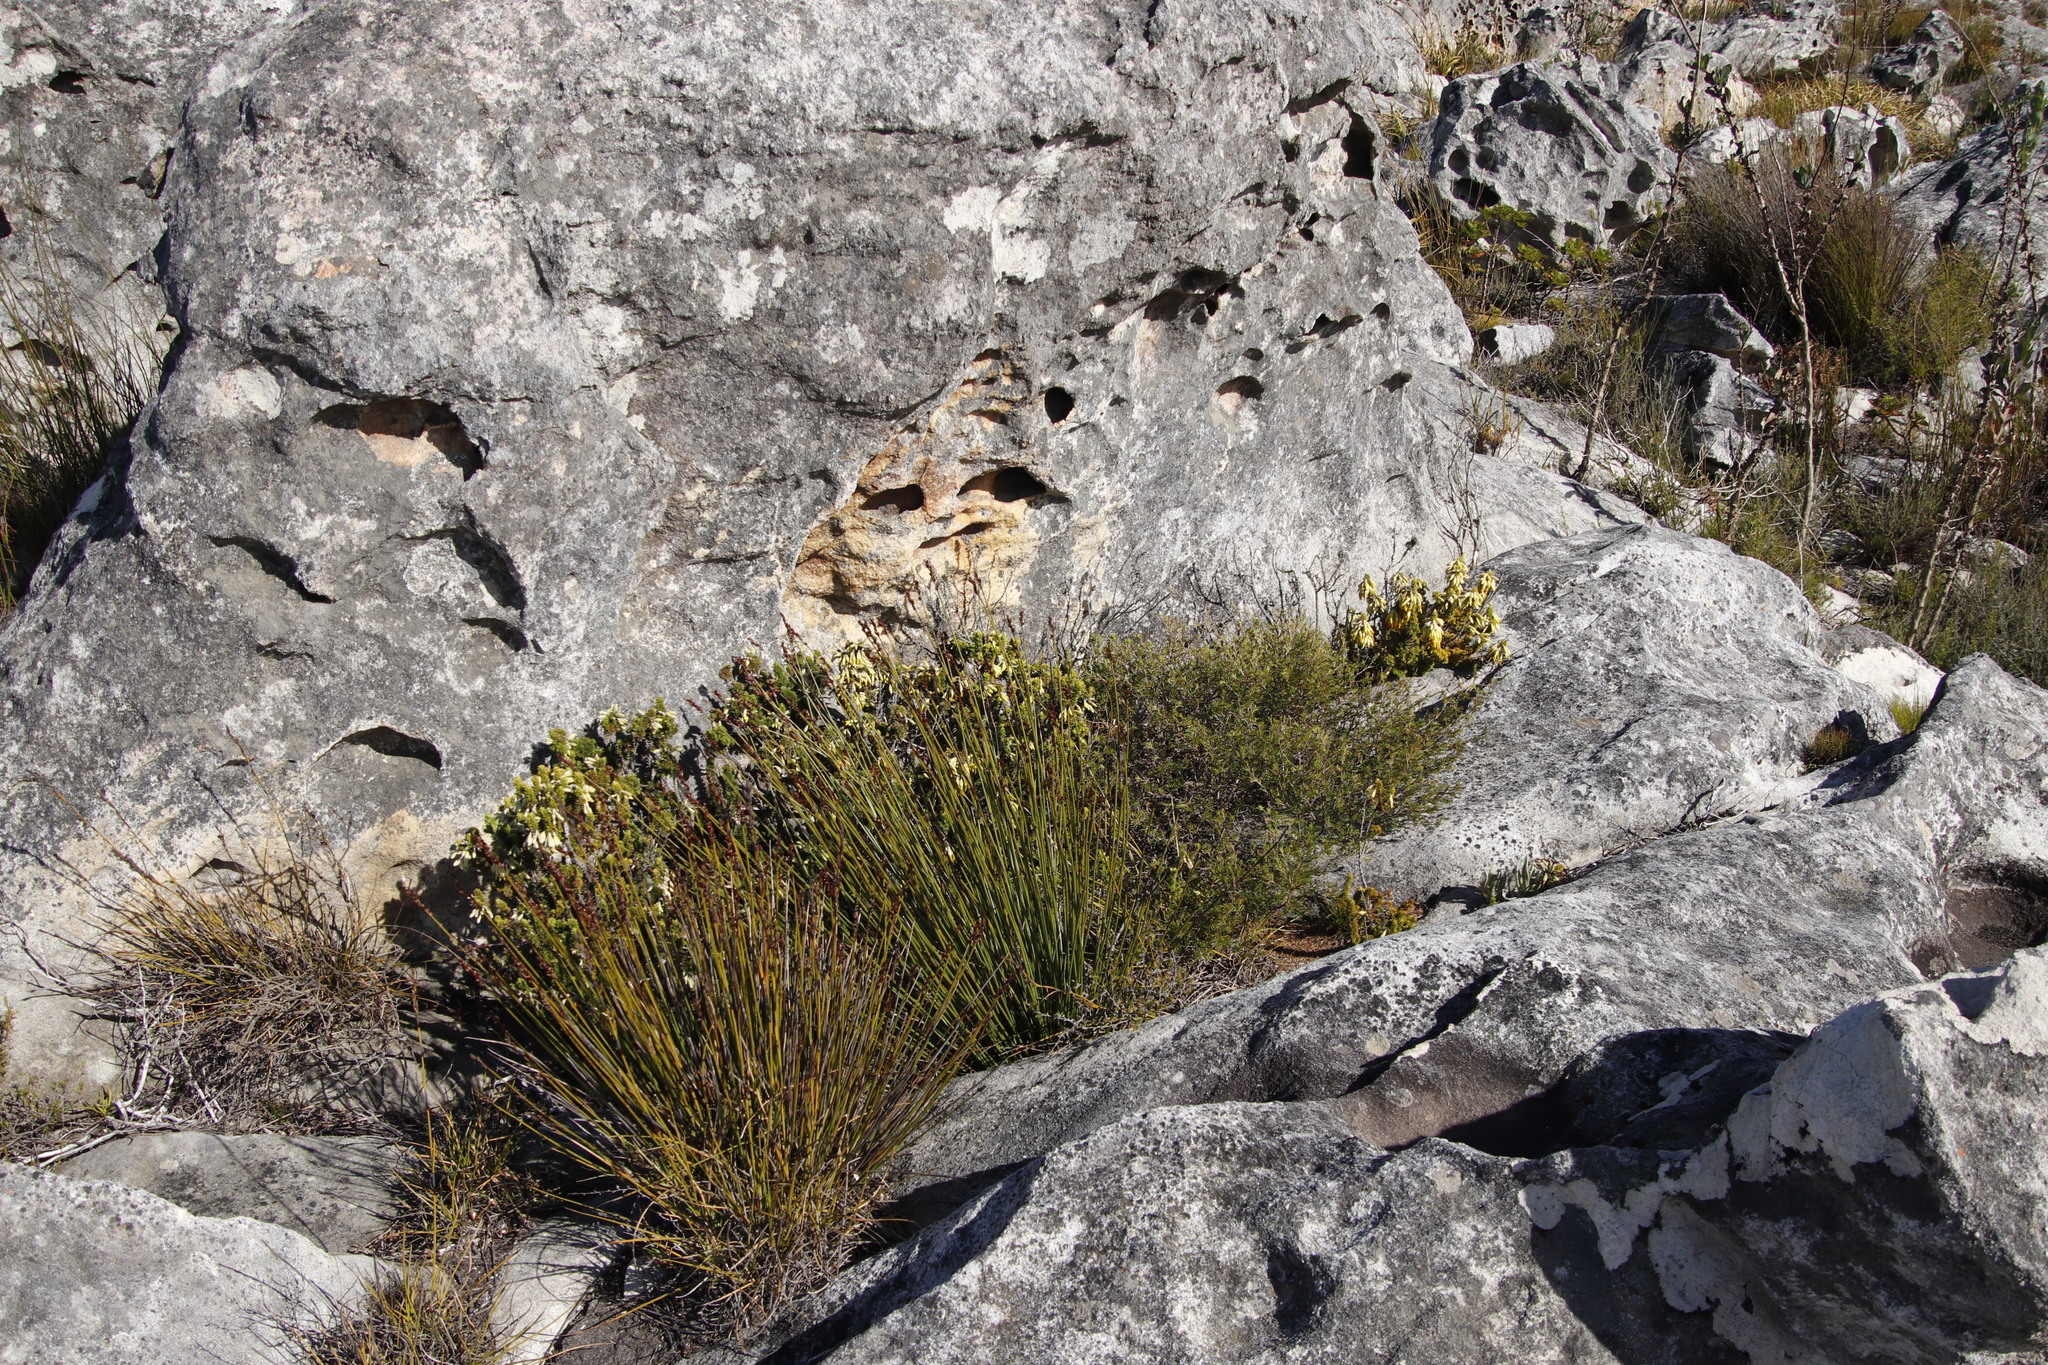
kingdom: Plantae
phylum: Tracheophyta
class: Magnoliopsida
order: Ericales
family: Ericaceae
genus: Erica
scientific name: Erica coccinea
